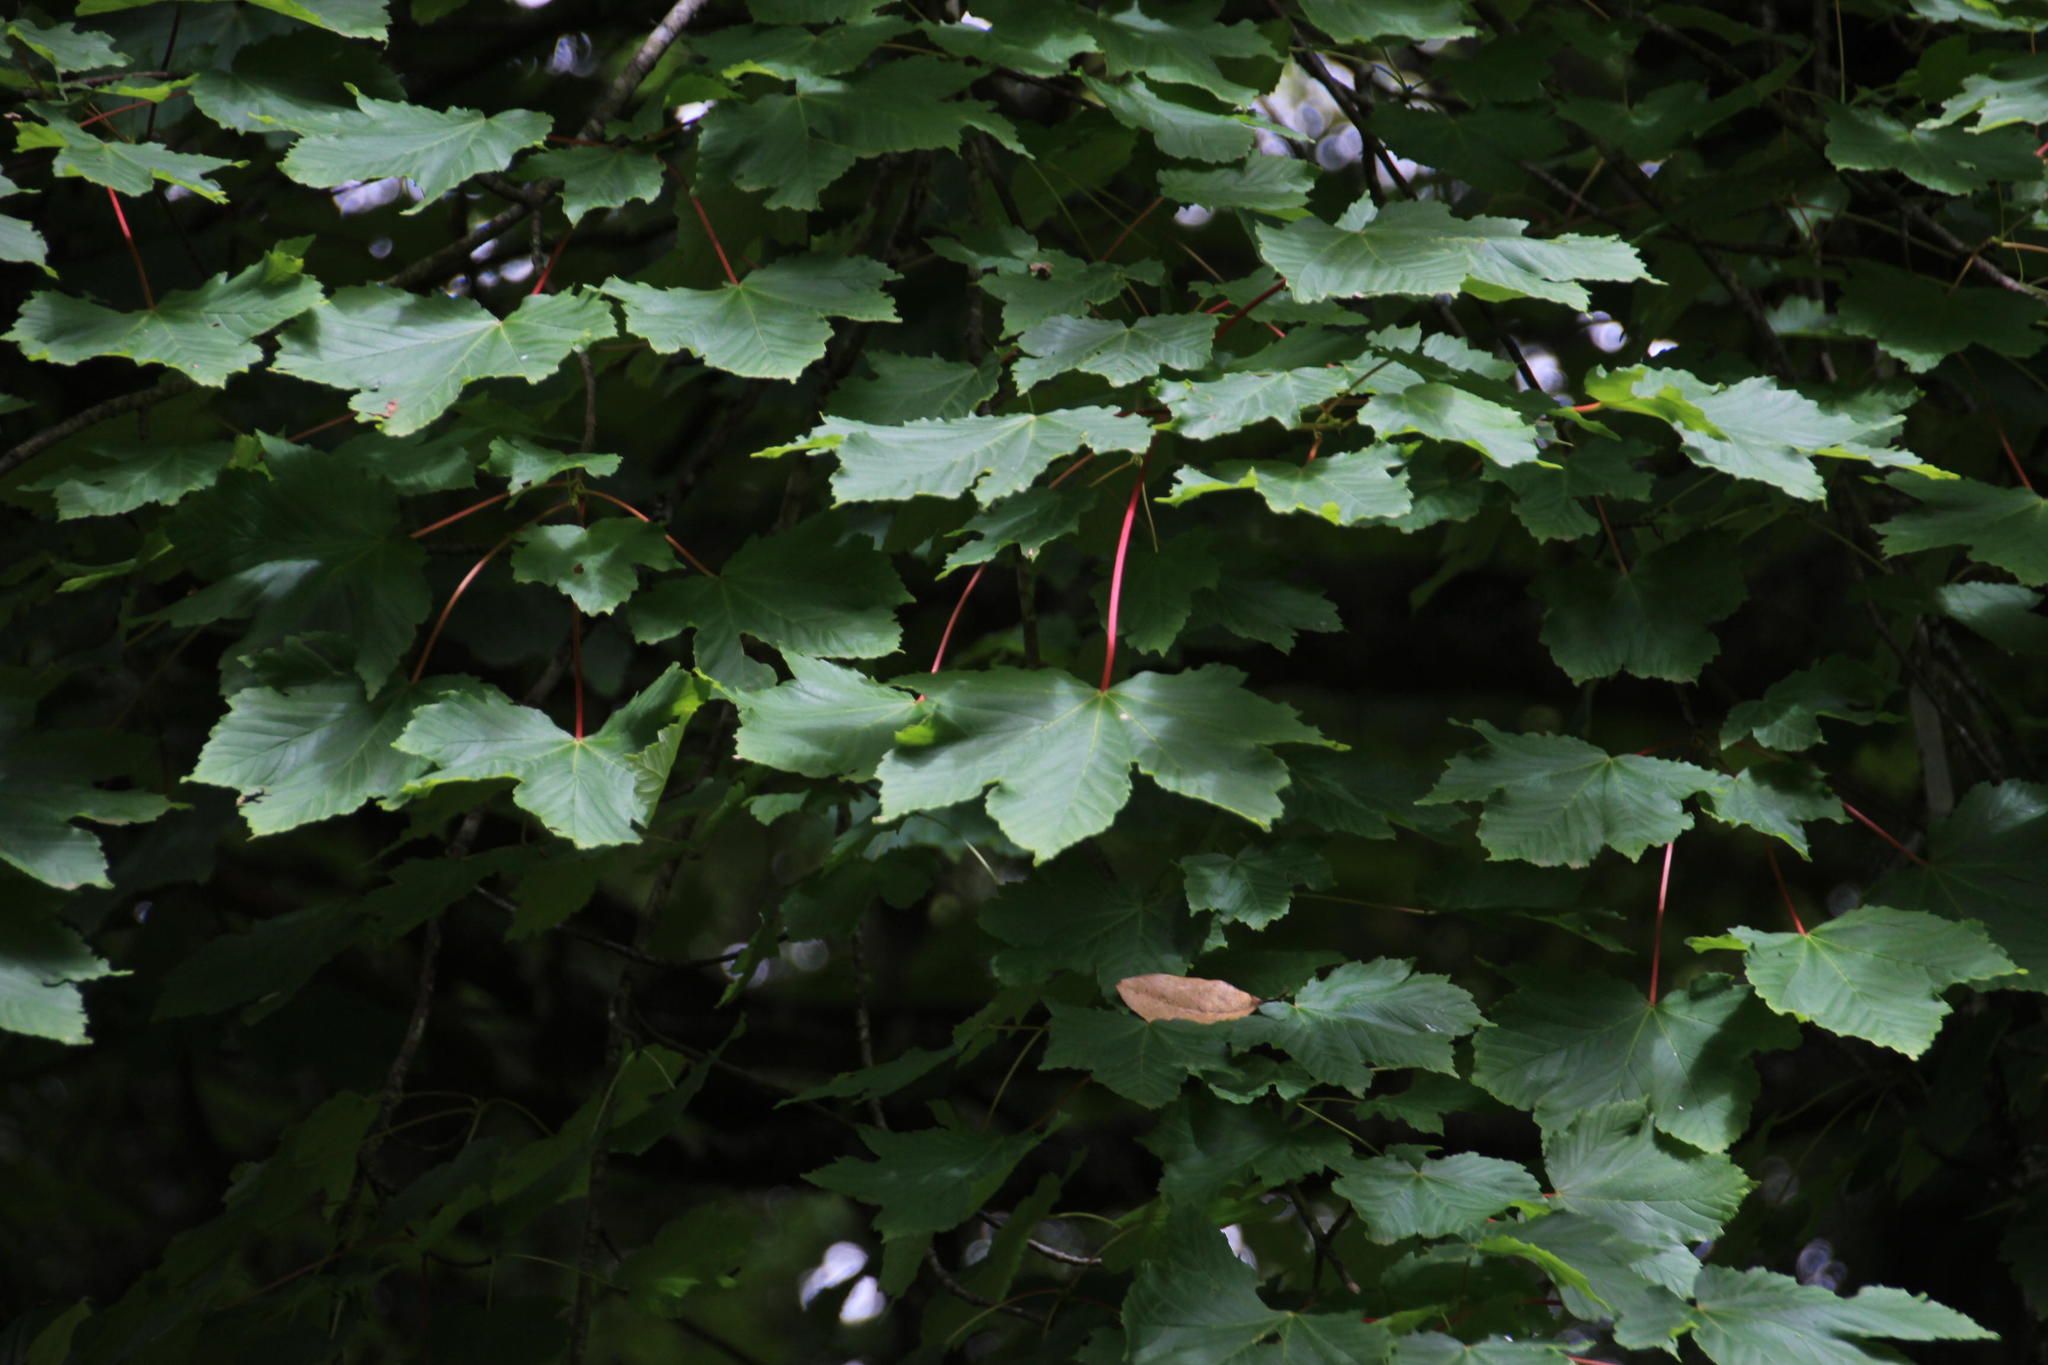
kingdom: Plantae
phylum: Tracheophyta
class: Magnoliopsida
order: Sapindales
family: Sapindaceae
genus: Acer
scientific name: Acer pseudoplatanus
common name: Sycamore
